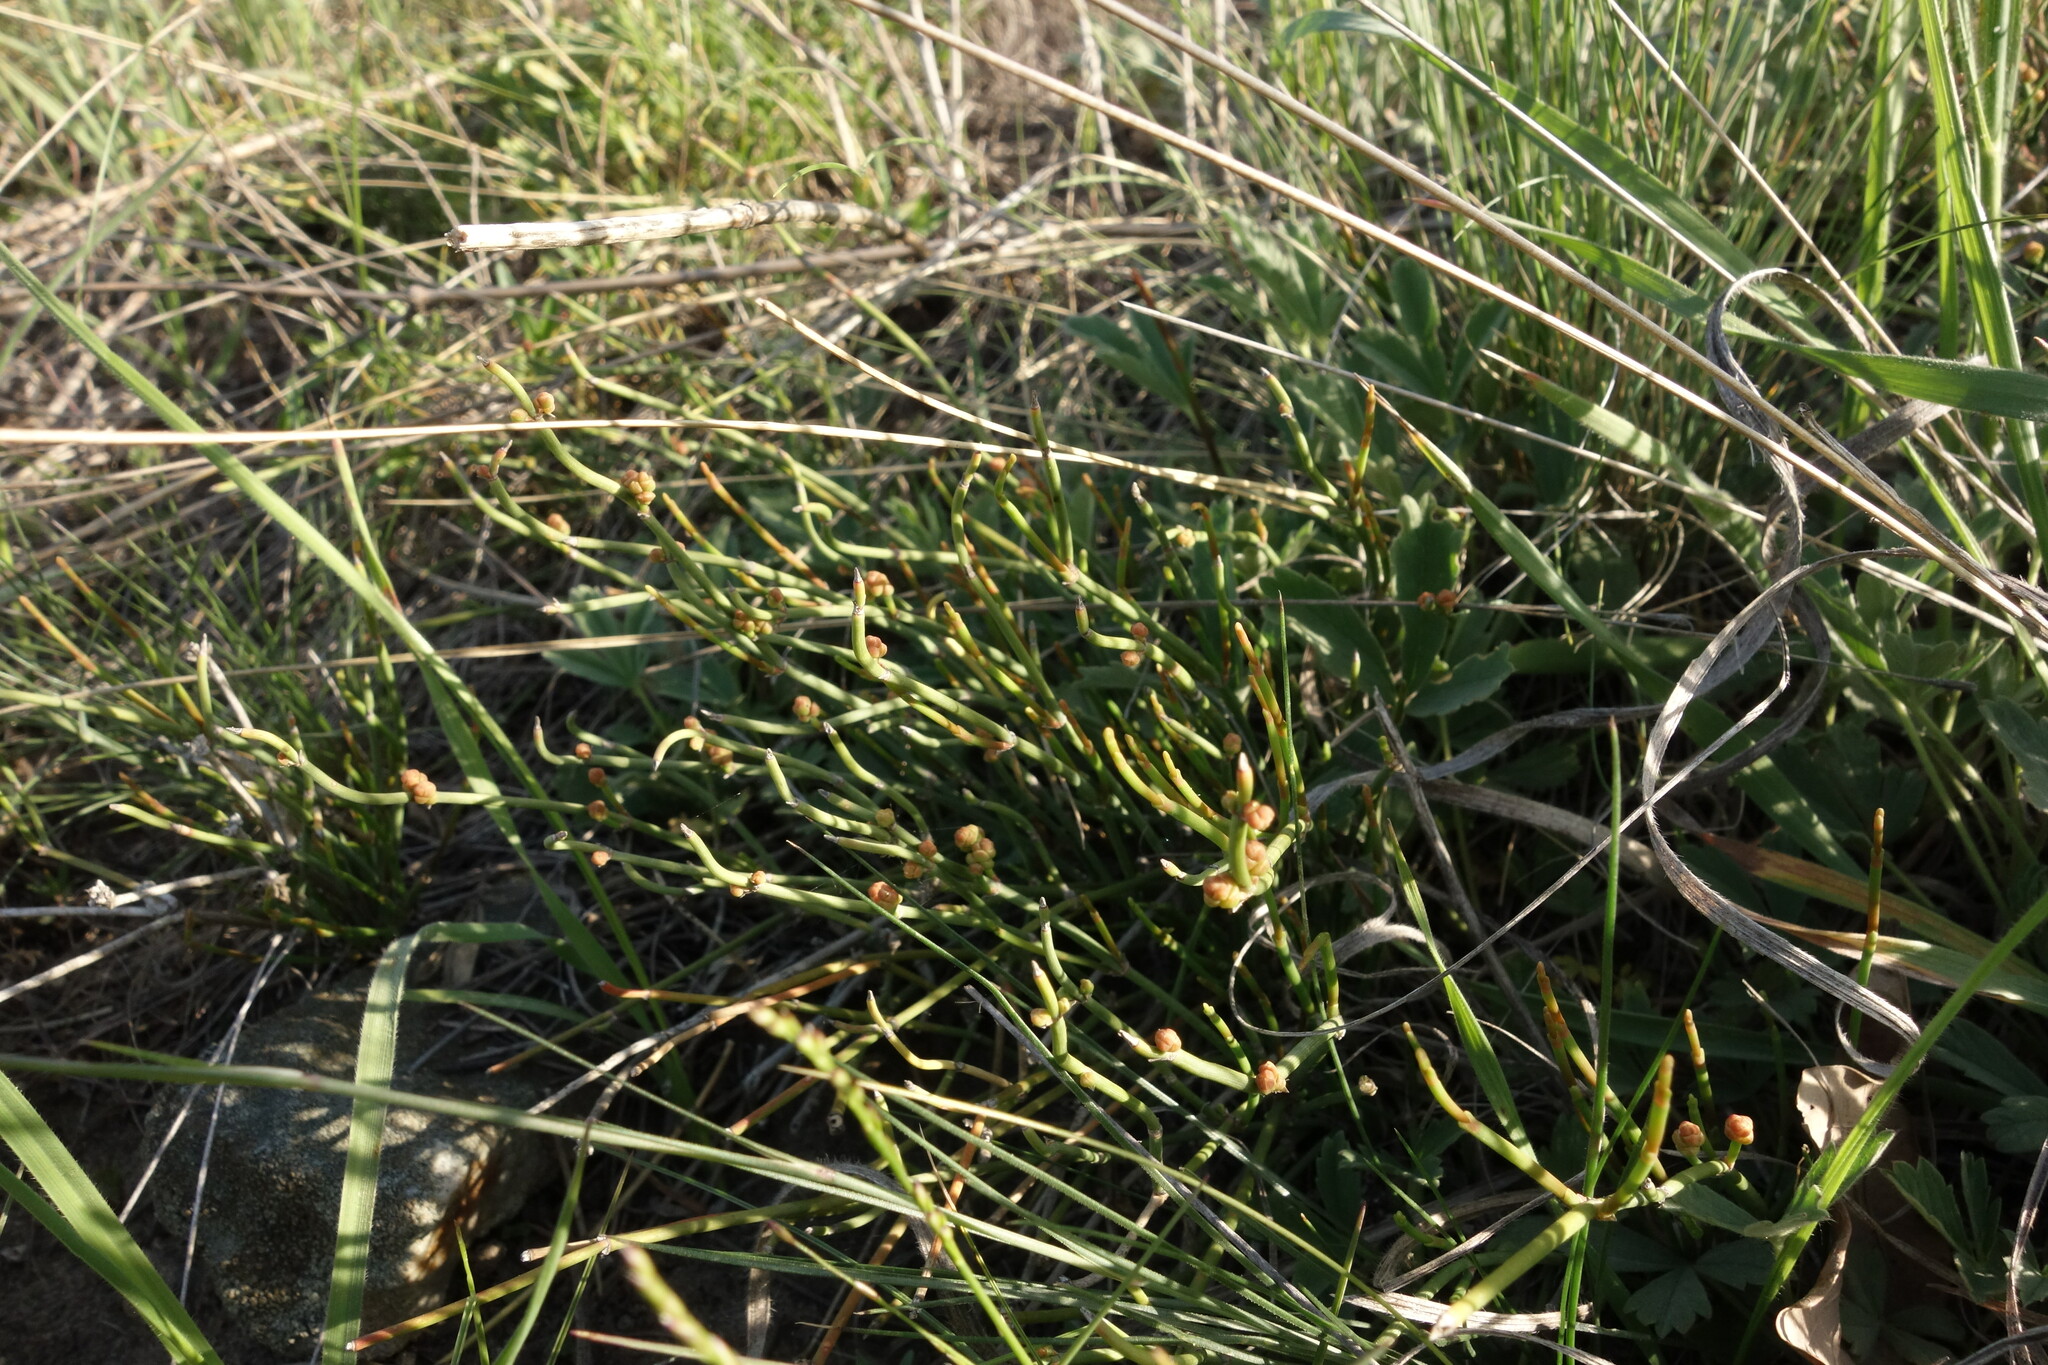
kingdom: Plantae
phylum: Tracheophyta
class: Gnetopsida
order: Ephedrales
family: Ephedraceae
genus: Ephedra
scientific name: Ephedra distachya
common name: Sea grape
